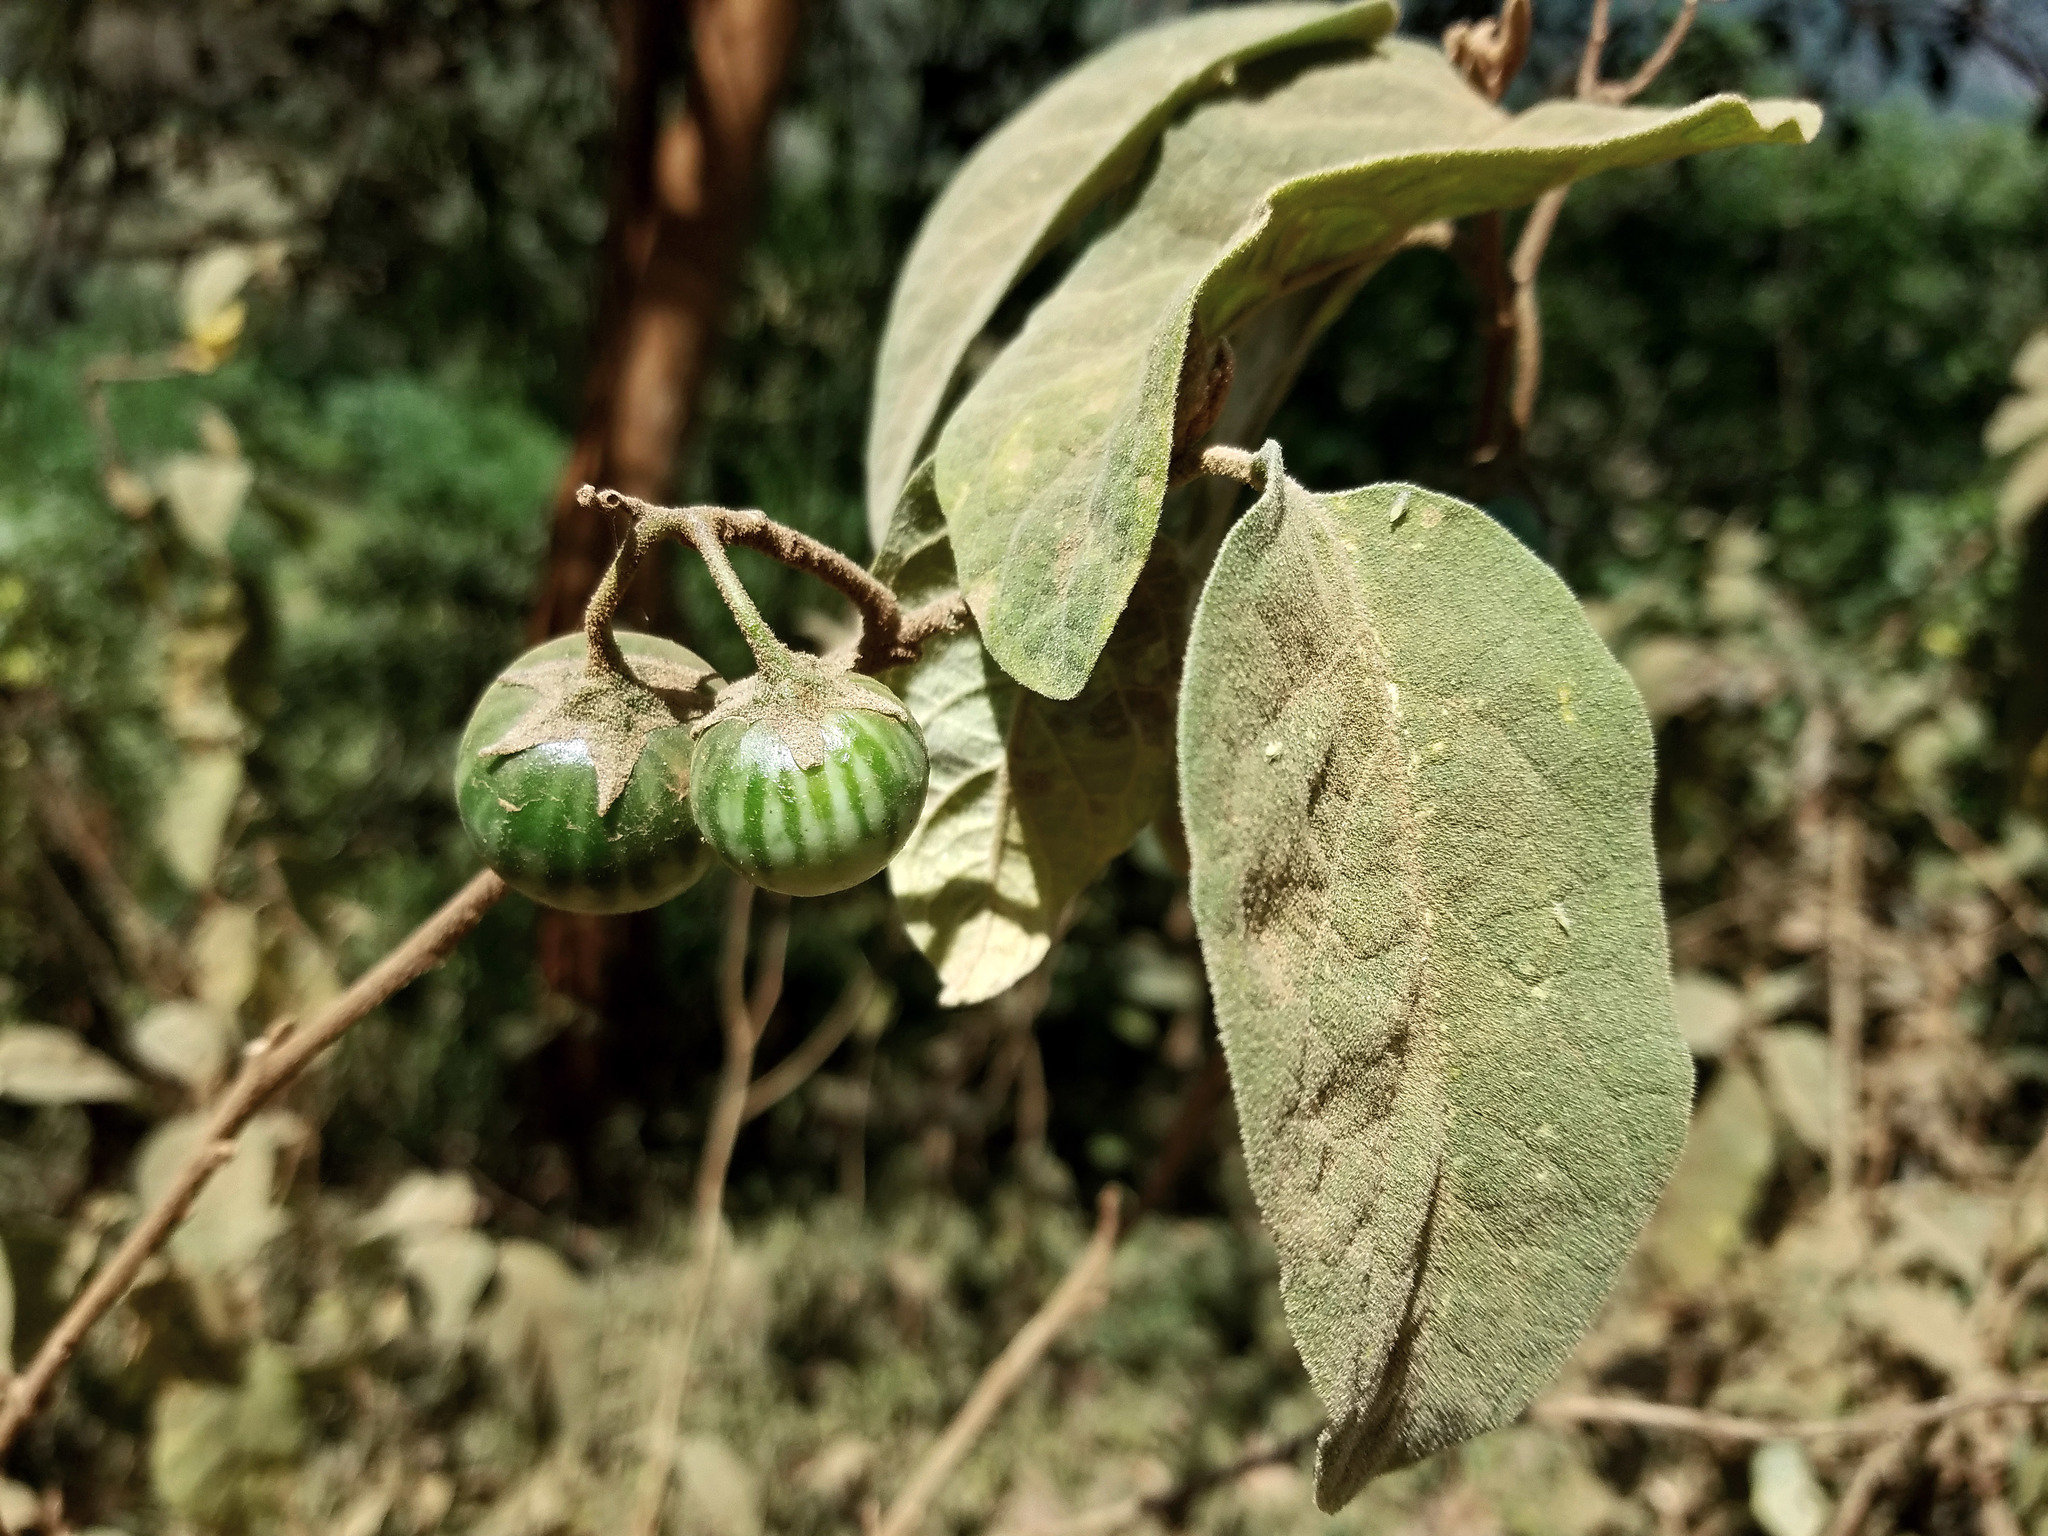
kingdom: Plantae
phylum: Tracheophyta
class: Magnoliopsida
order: Solanales
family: Solanaceae
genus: Solanum
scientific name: Solanum dennekense
